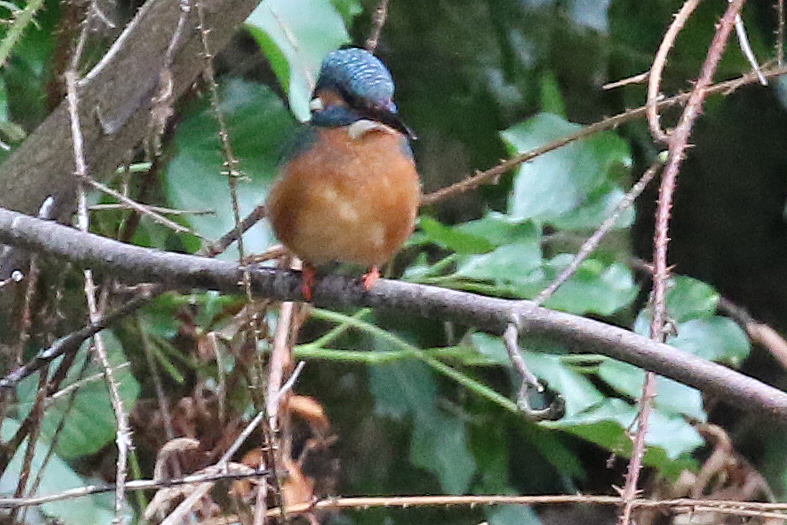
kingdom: Animalia
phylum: Chordata
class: Aves
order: Coraciiformes
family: Alcedinidae
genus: Alcedo
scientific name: Alcedo atthis
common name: Common kingfisher
